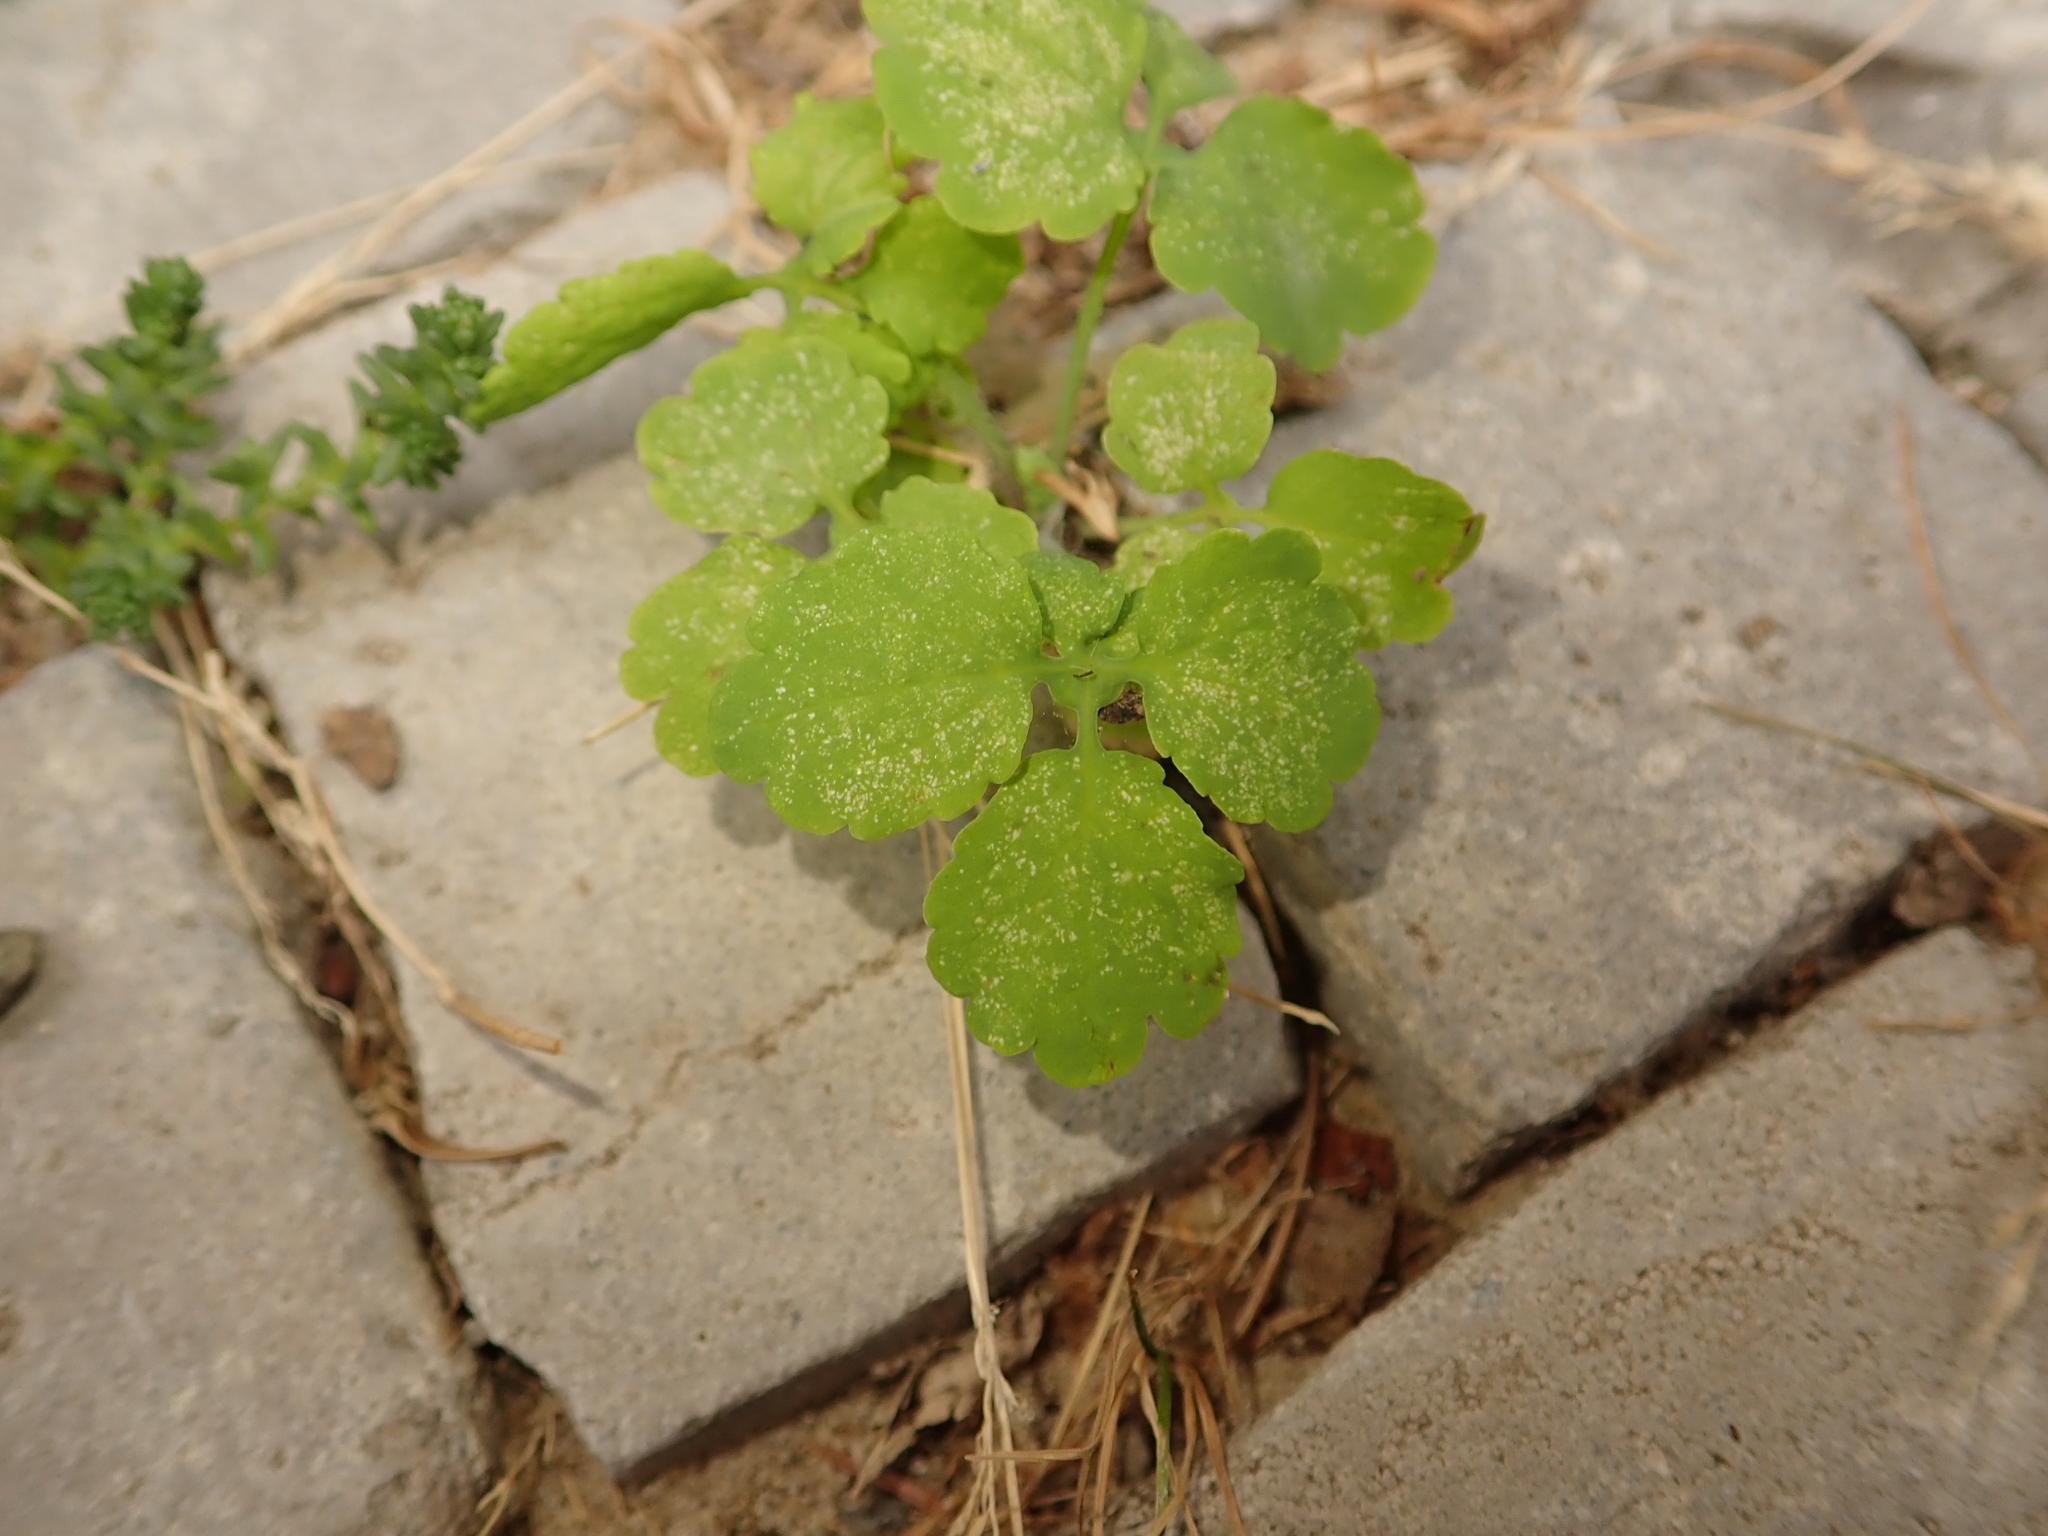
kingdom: Plantae
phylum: Tracheophyta
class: Magnoliopsida
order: Ranunculales
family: Papaveraceae
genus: Chelidonium
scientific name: Chelidonium majus
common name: Greater celandine
